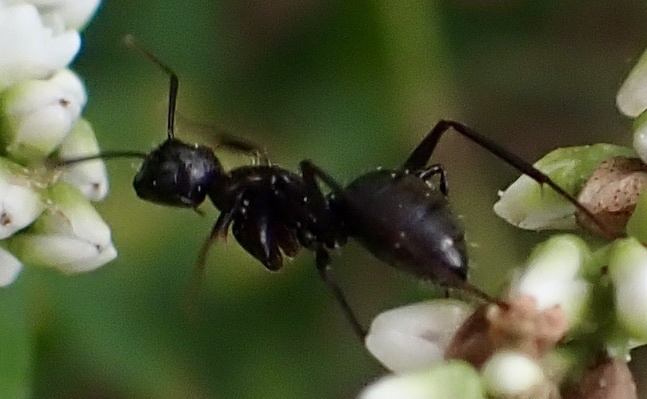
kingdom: Animalia
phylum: Arthropoda
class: Insecta
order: Hymenoptera
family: Formicidae
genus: Camponotus
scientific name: Camponotus pennsylvanicus
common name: Black carpenter ant
